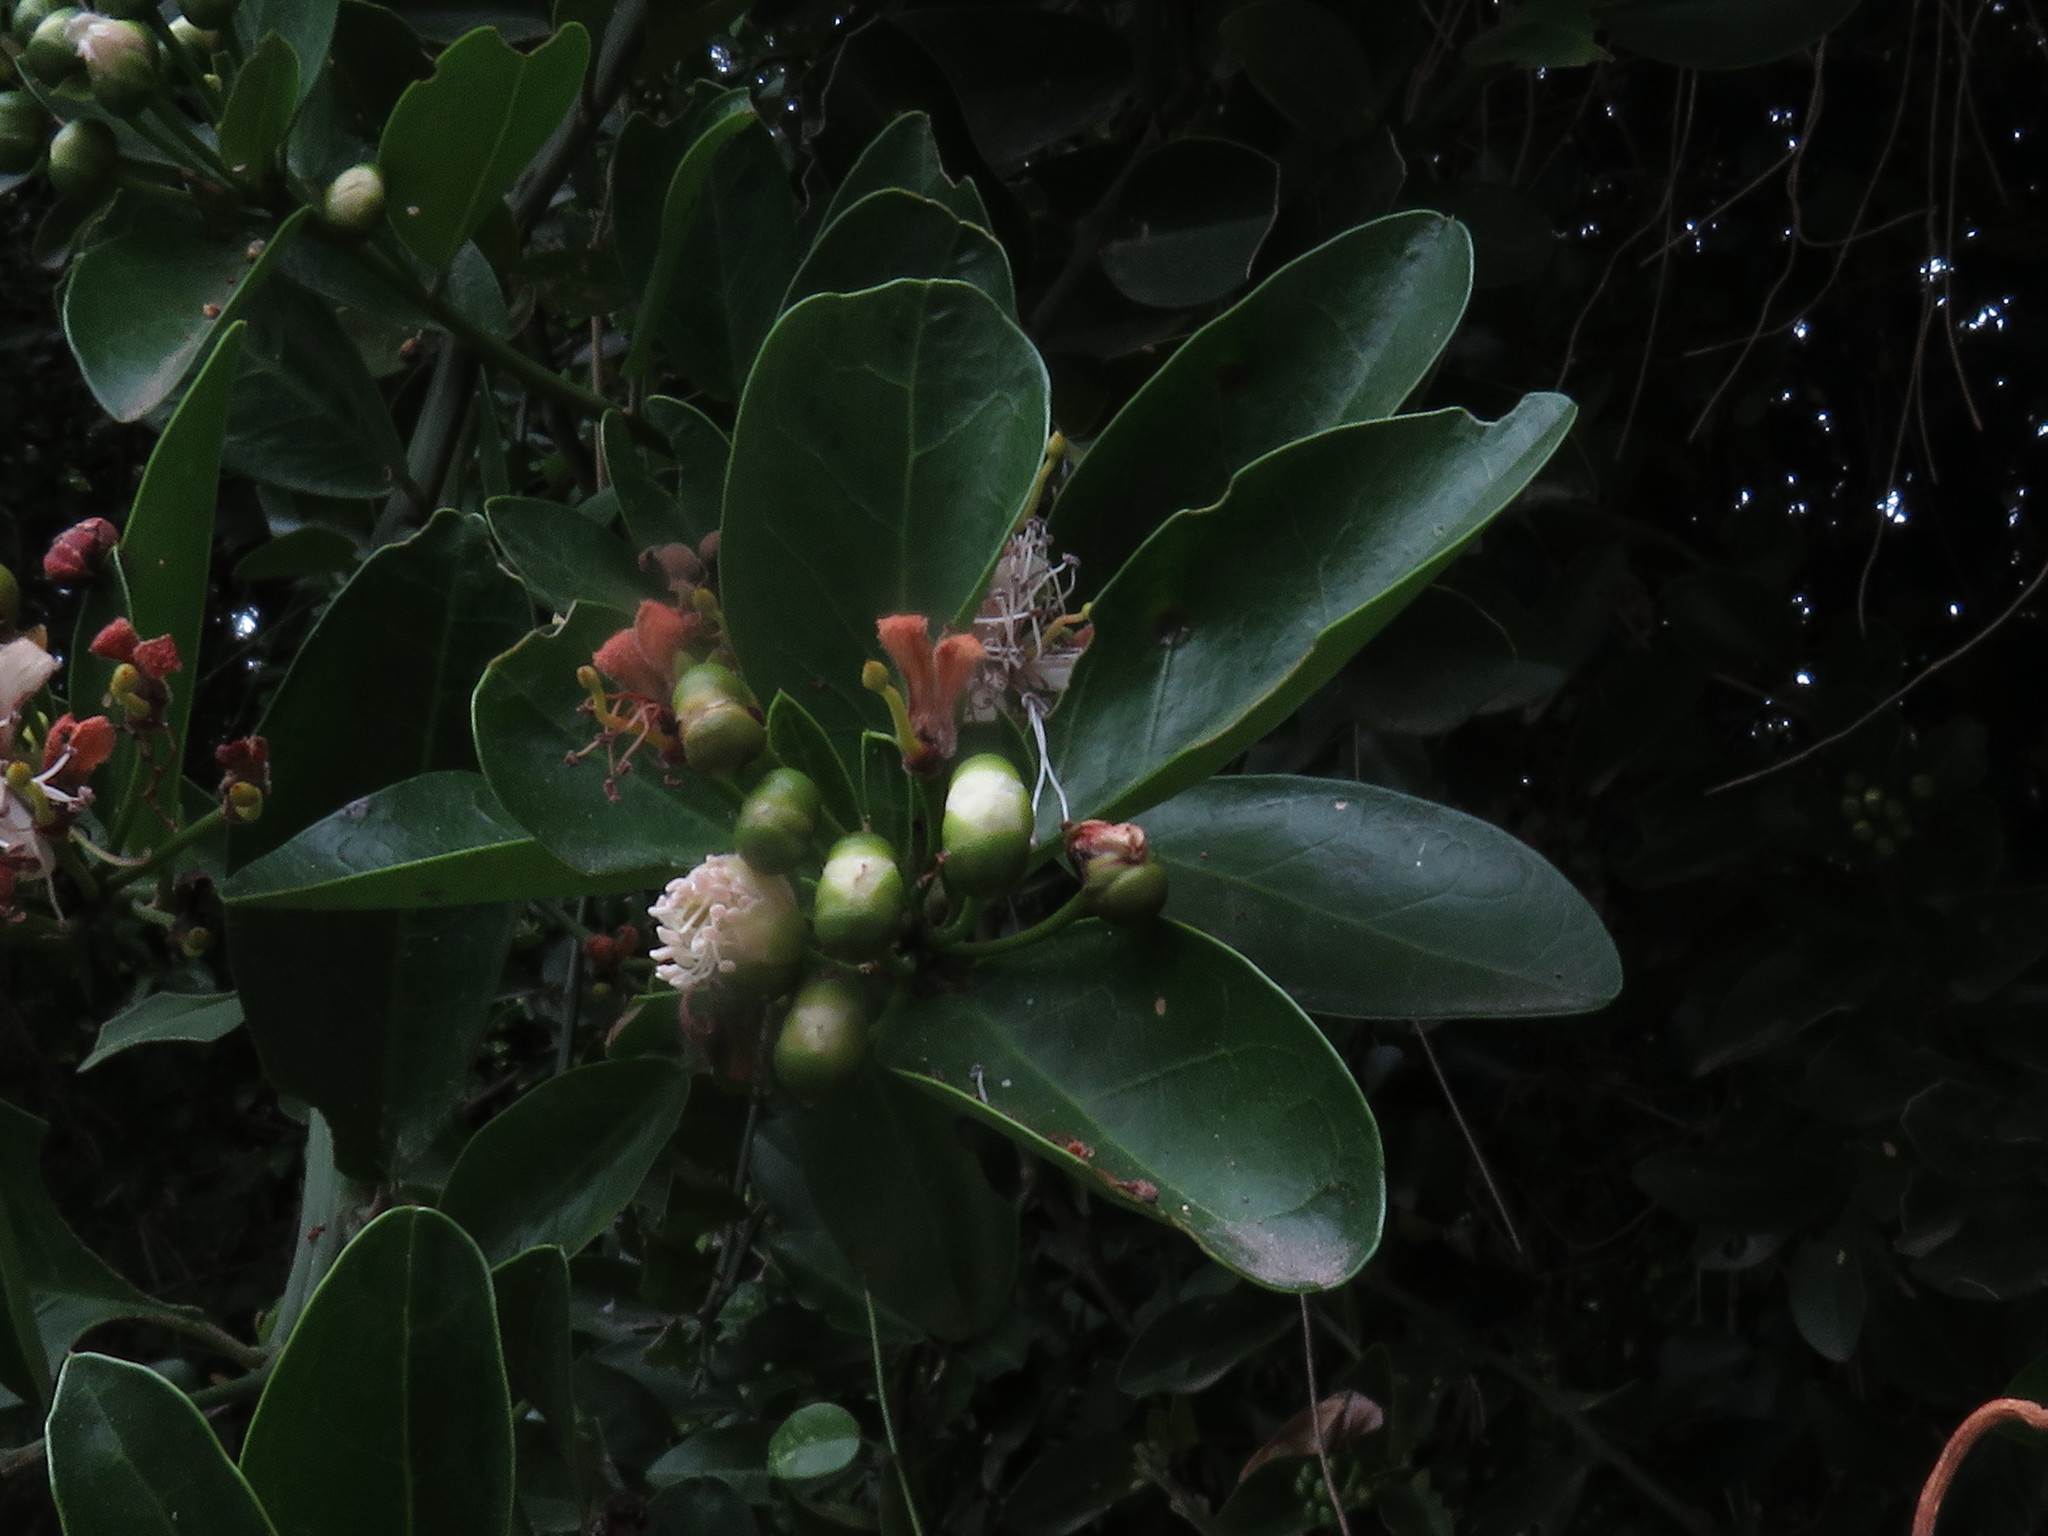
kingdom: Plantae
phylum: Tracheophyta
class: Magnoliopsida
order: Brassicales
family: Capparaceae
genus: Capparis
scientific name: Capparis sepiaria
